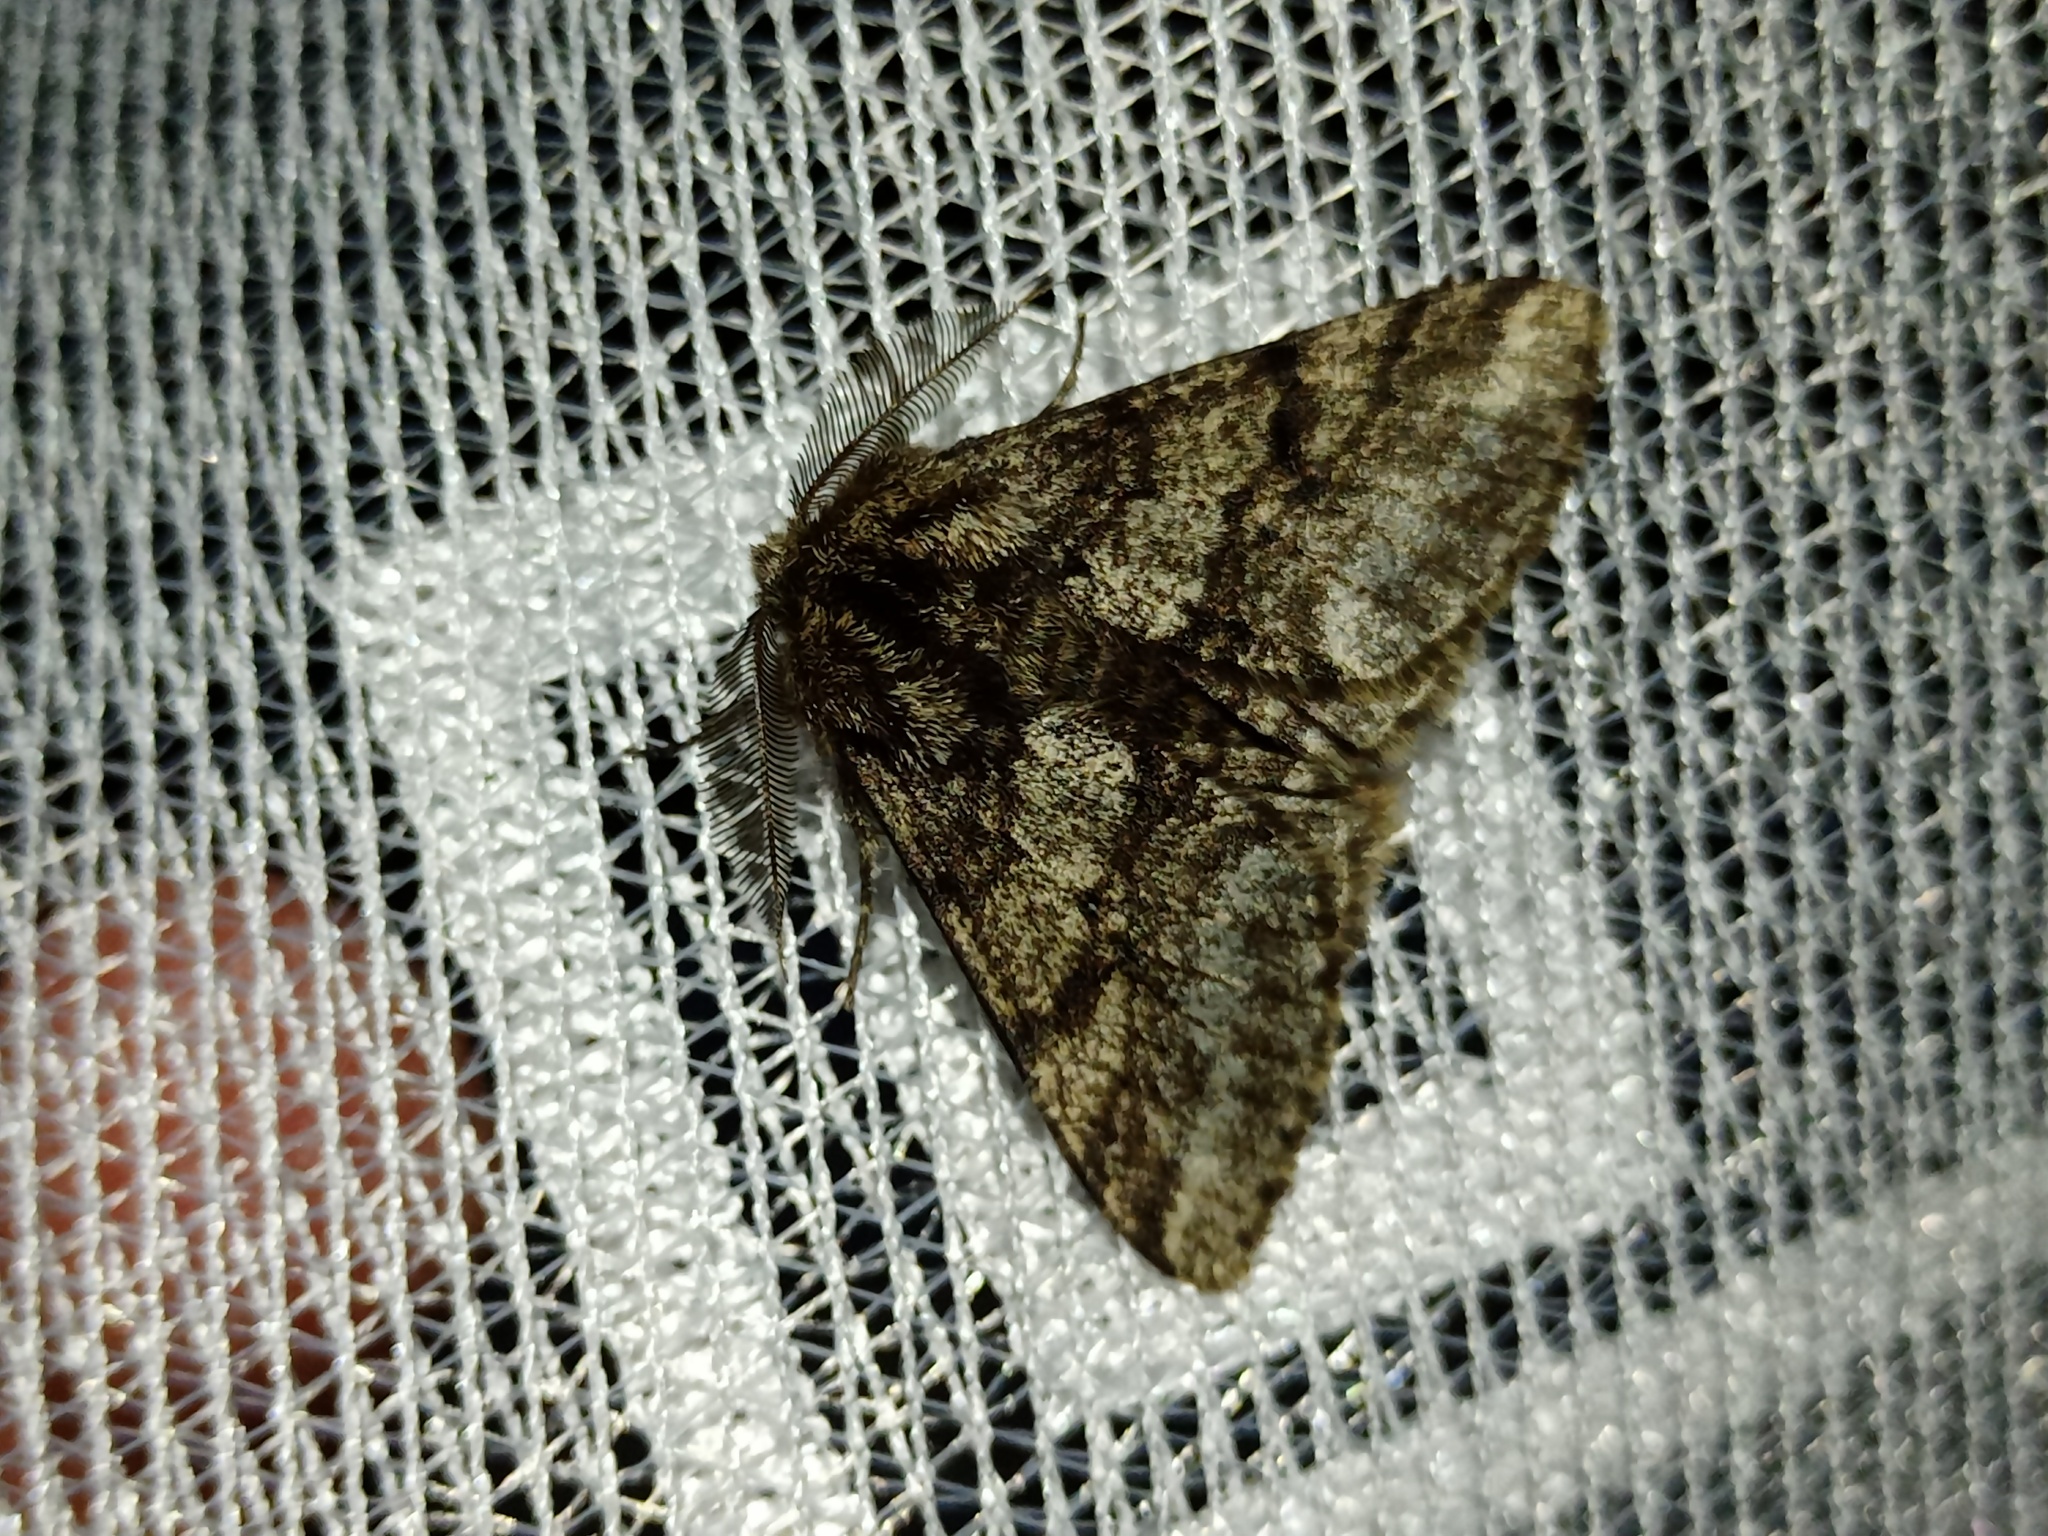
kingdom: Animalia
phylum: Arthropoda
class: Insecta
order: Lepidoptera
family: Geometridae
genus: Lycia
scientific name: Lycia hirtaria
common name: Brindled beauty
